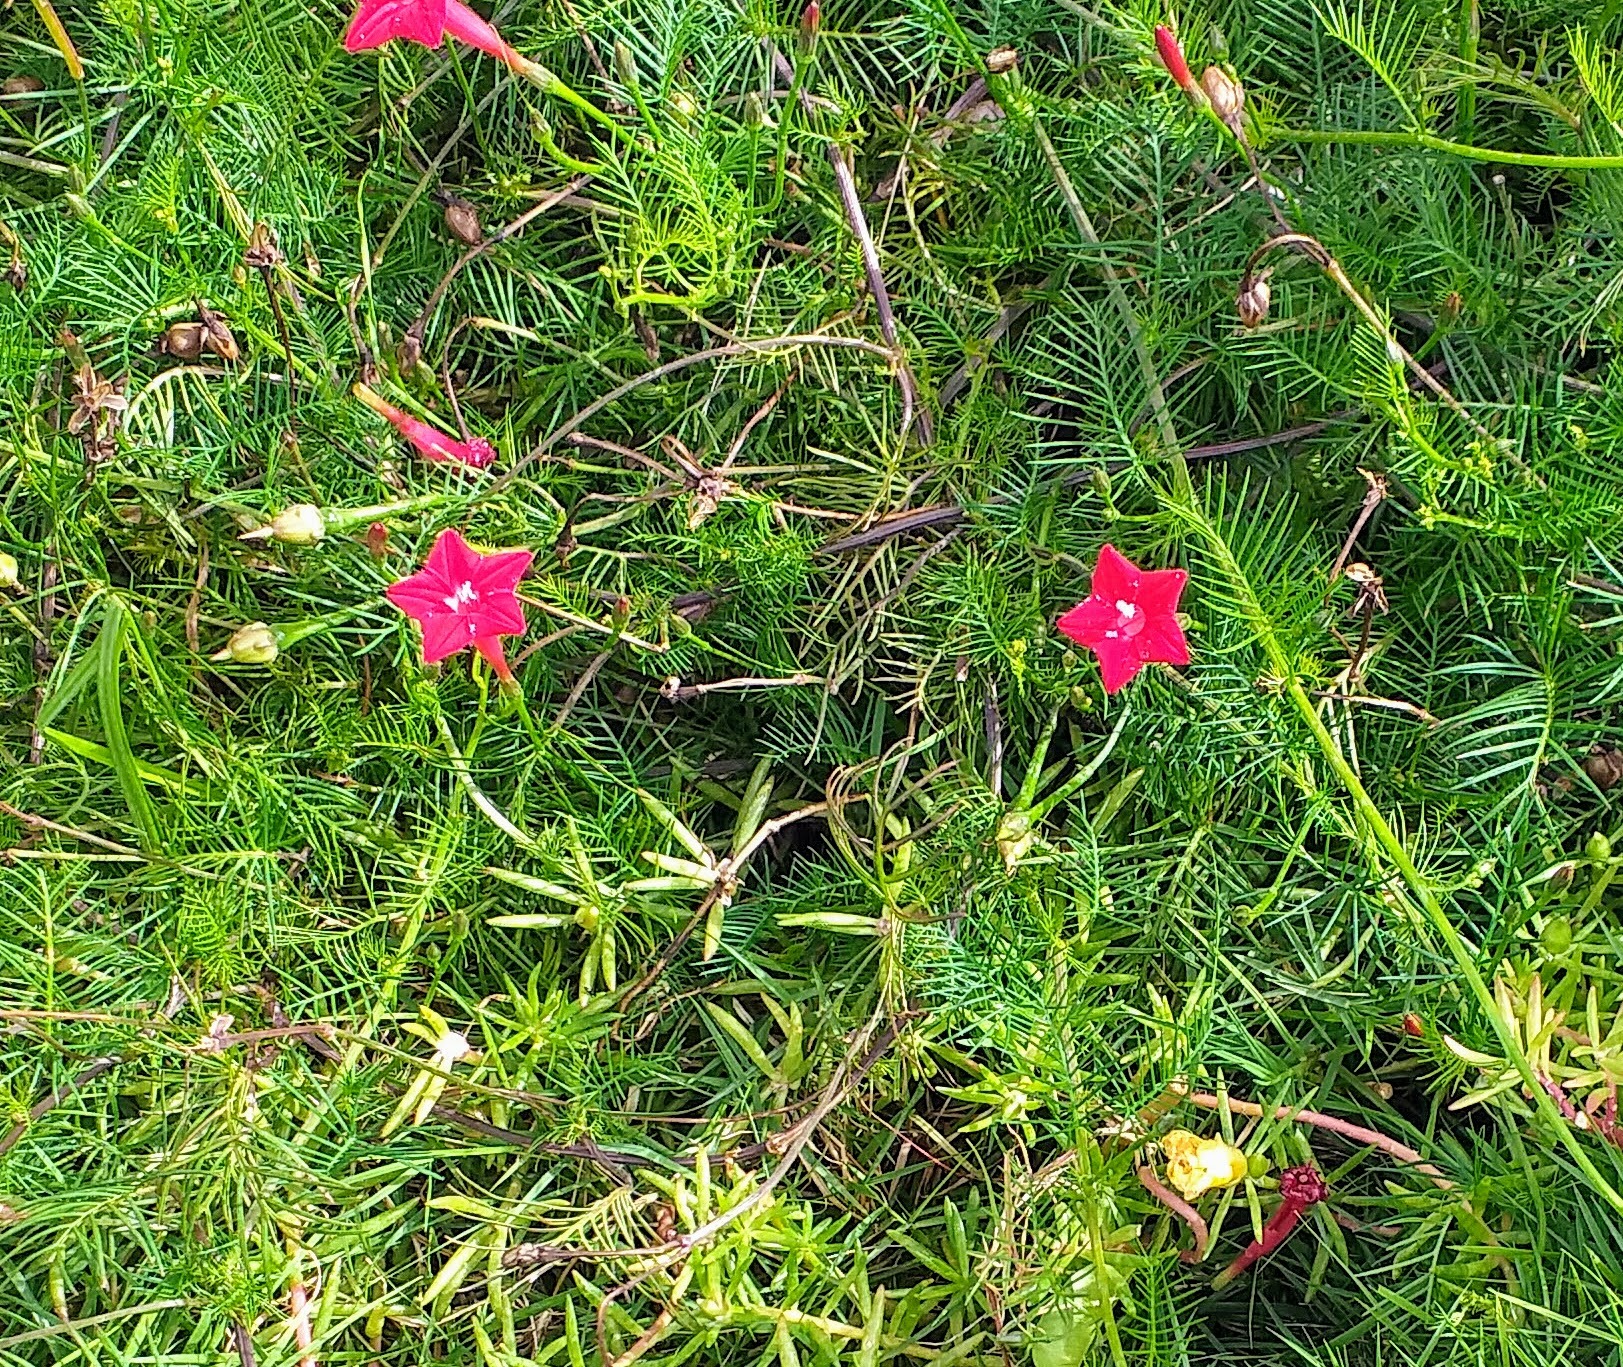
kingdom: Plantae
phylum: Tracheophyta
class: Magnoliopsida
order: Solanales
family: Convolvulaceae
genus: Ipomoea
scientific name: Ipomoea quamoclit
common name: Cypress vine
